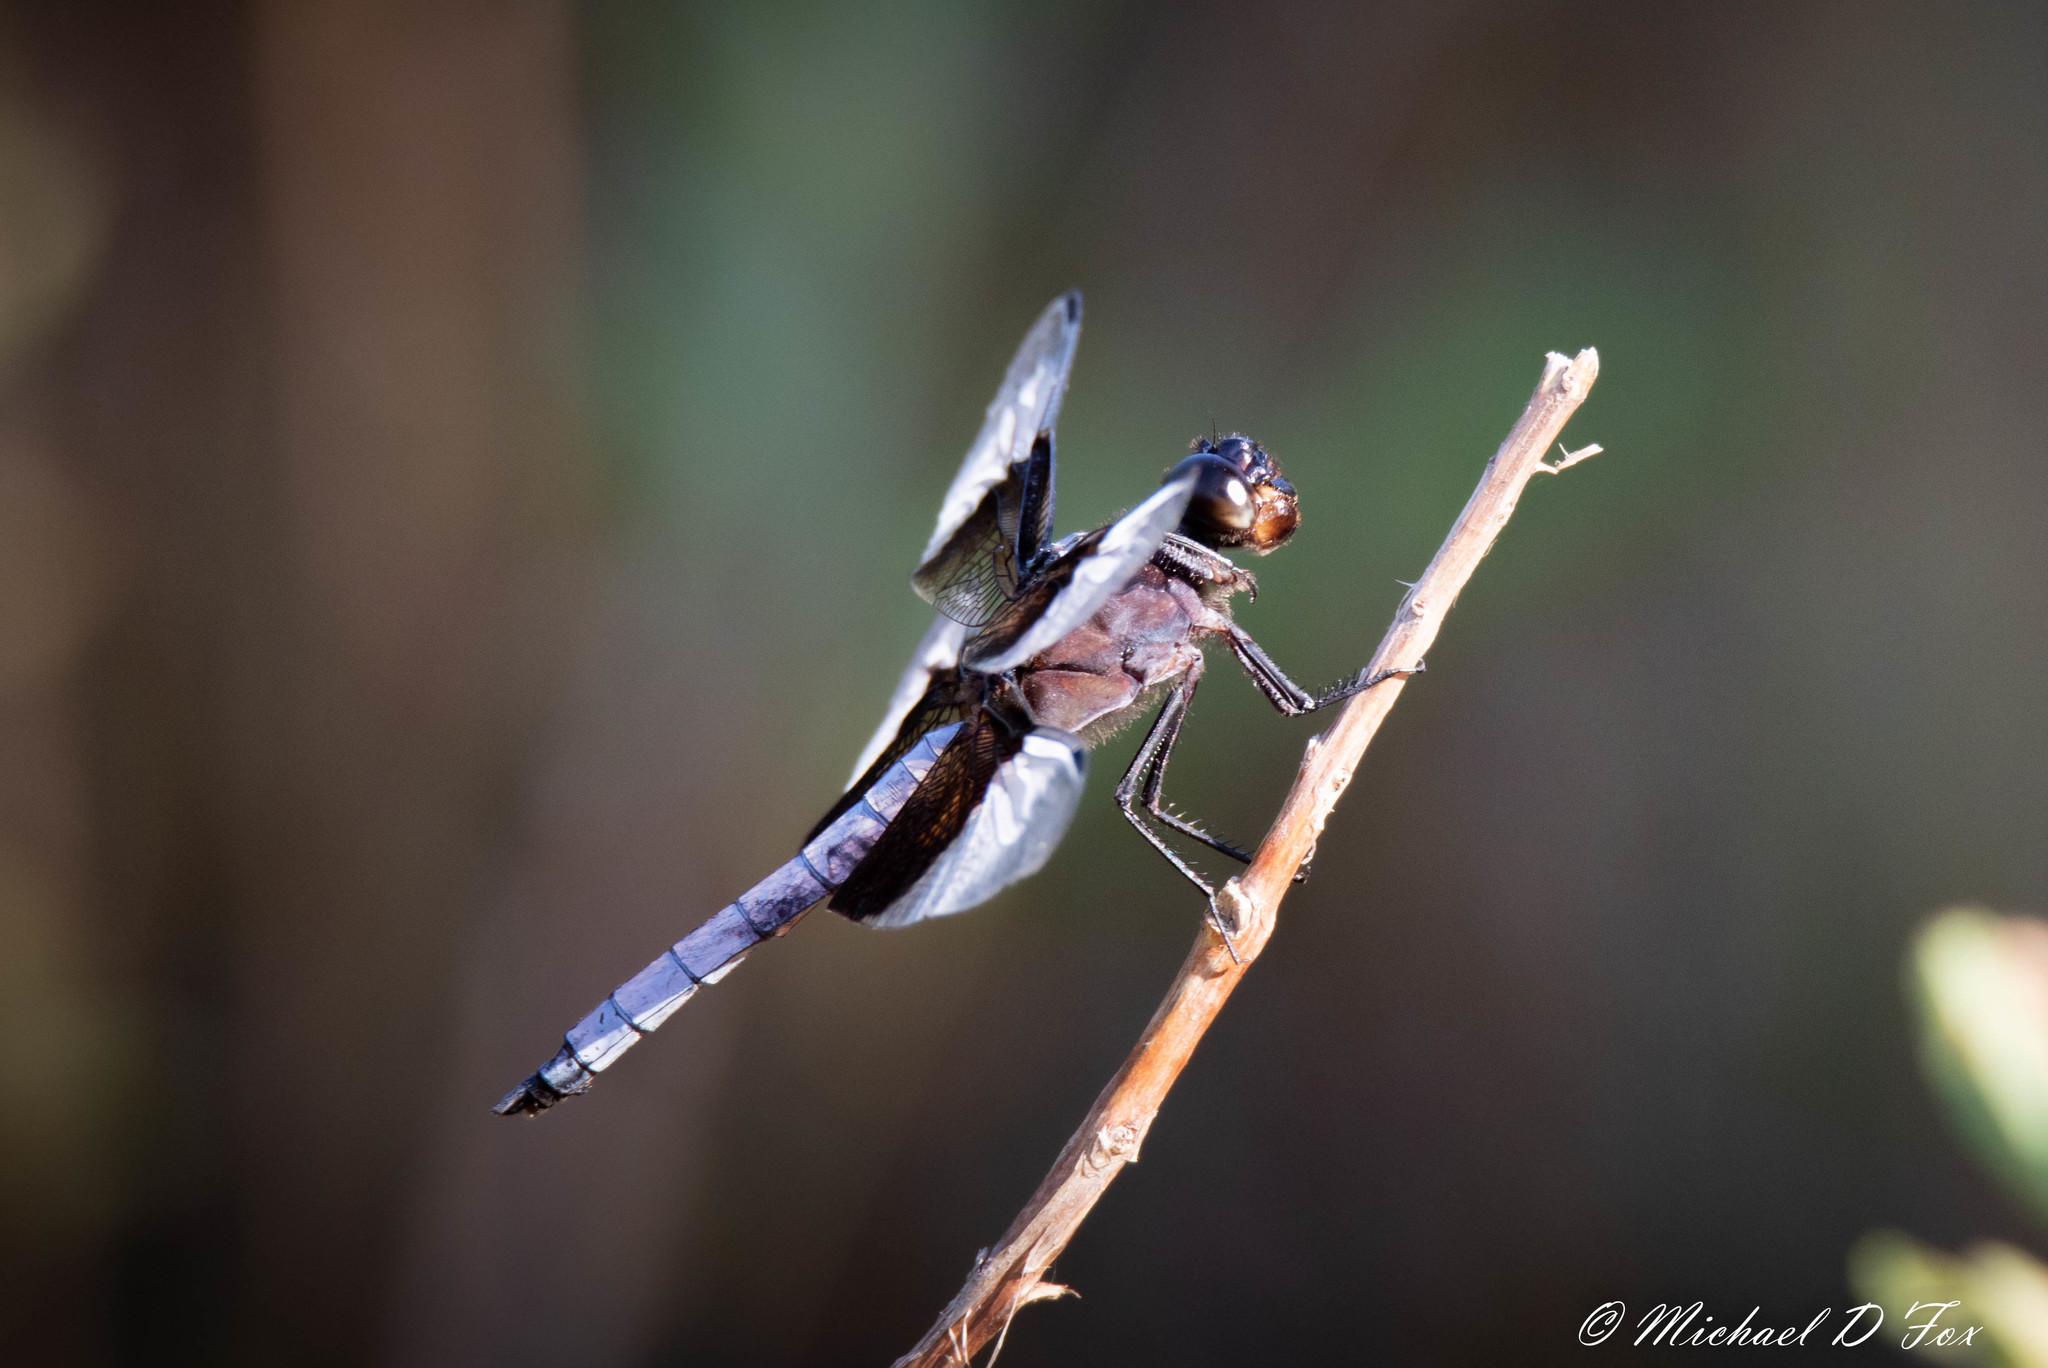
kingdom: Animalia
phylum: Arthropoda
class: Insecta
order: Odonata
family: Libellulidae
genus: Libellula
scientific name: Libellula luctuosa
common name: Widow skimmer
